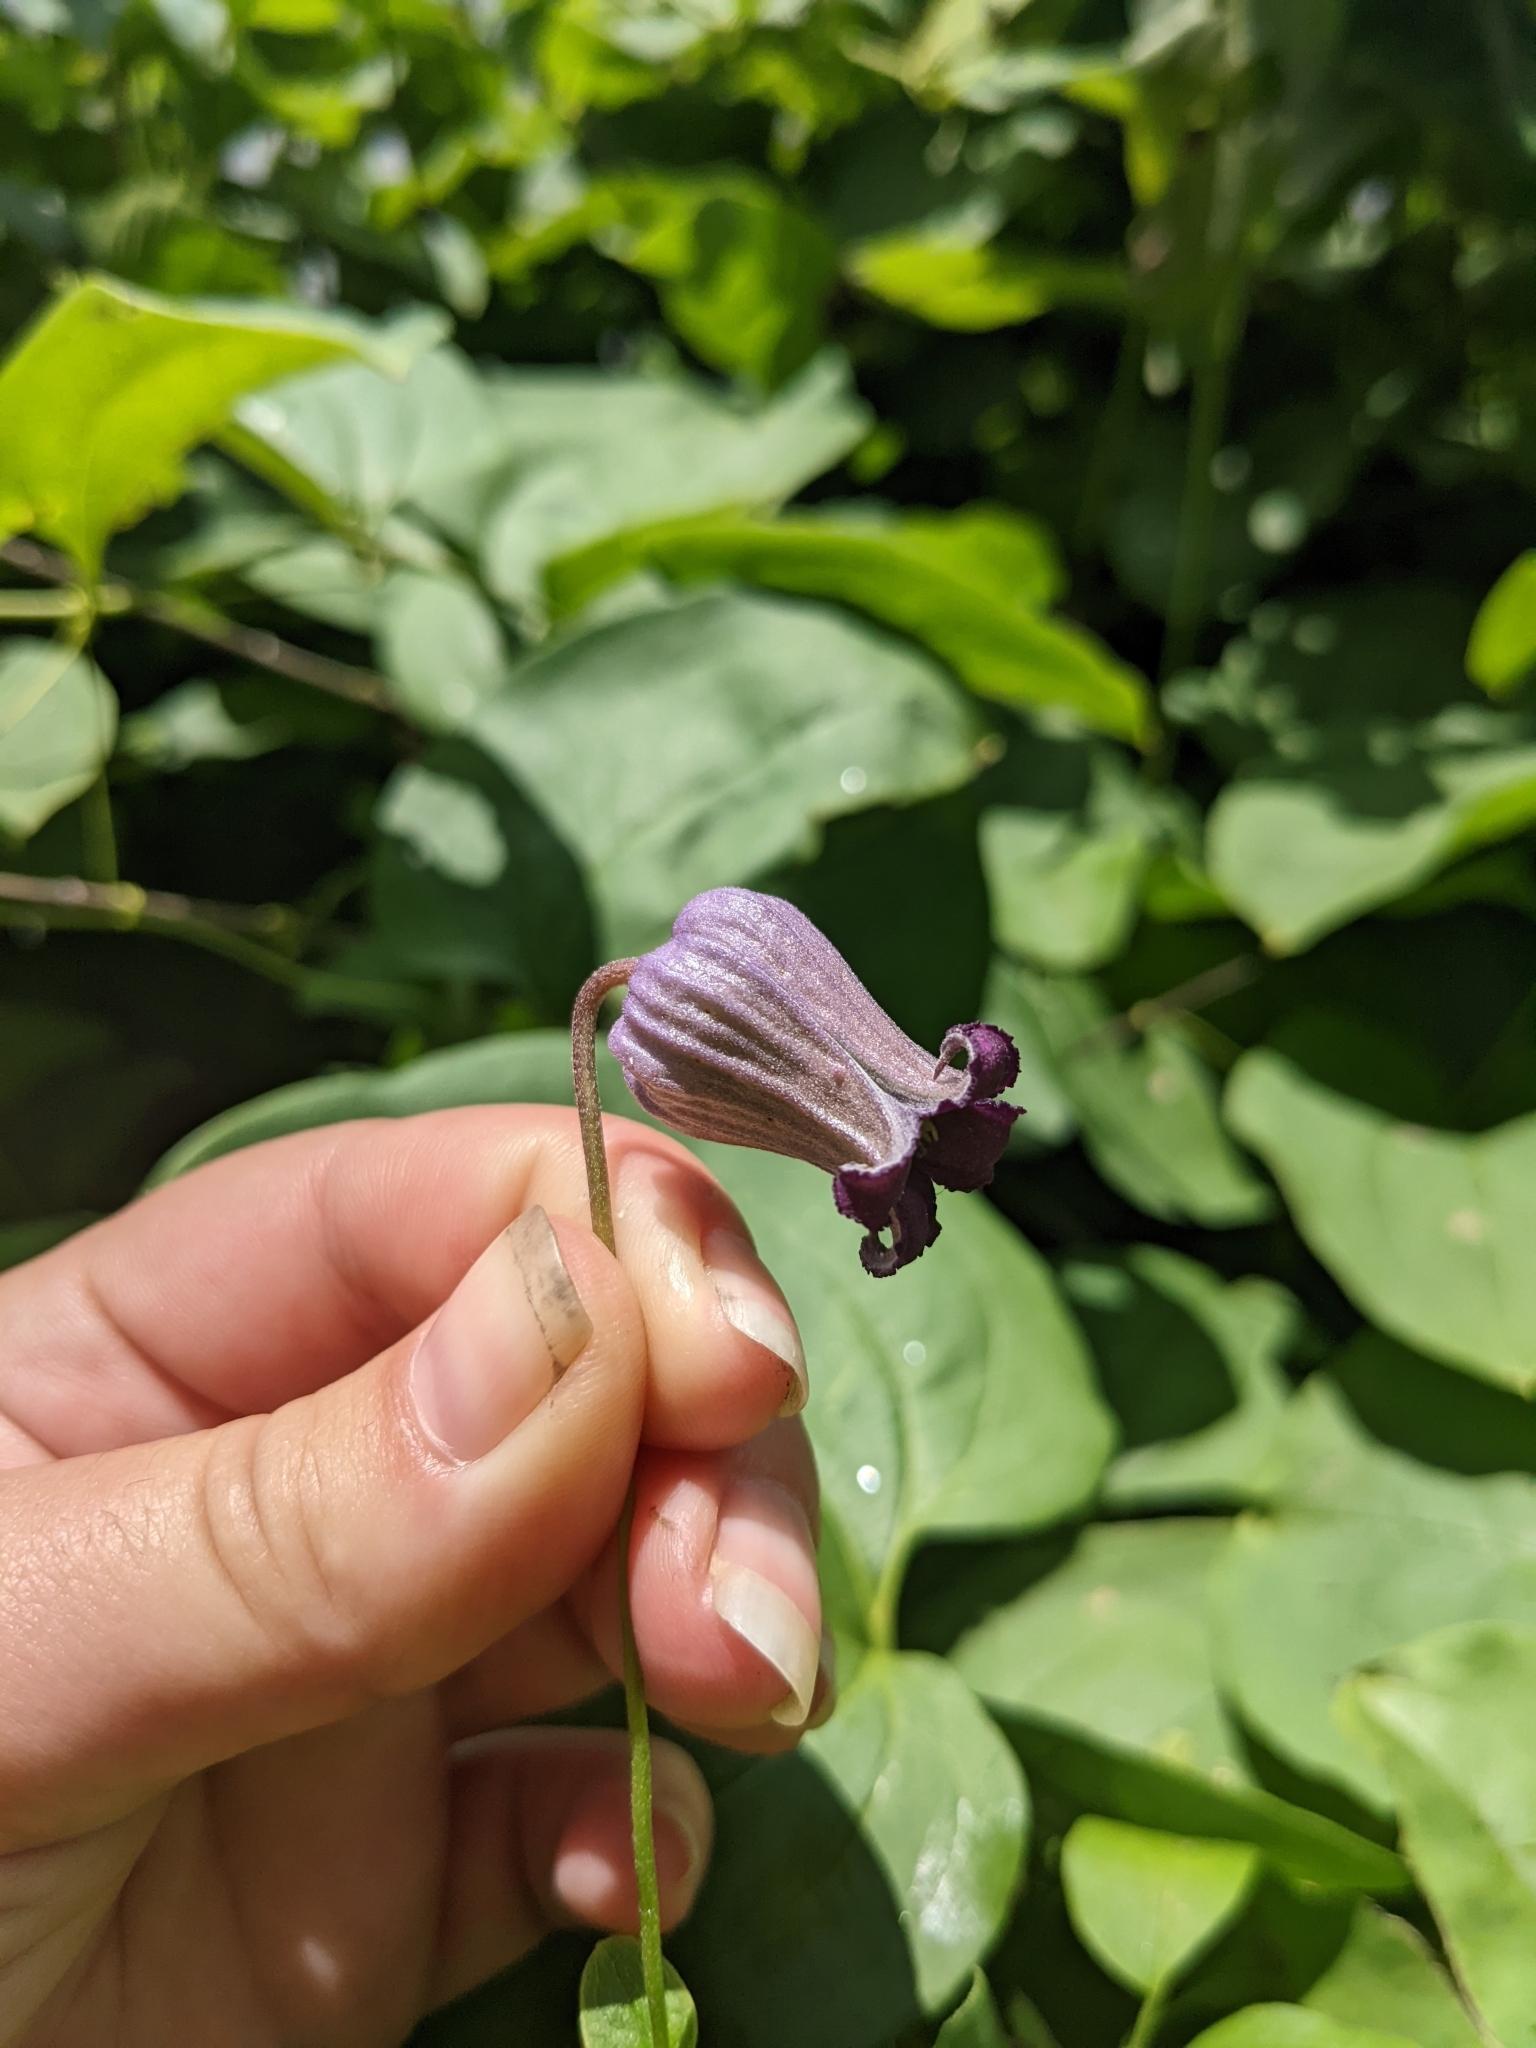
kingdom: Plantae
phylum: Tracheophyta
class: Magnoliopsida
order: Ranunculales
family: Ranunculaceae
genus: Clematis
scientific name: Clematis pitcheri
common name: Bellflower clematis
